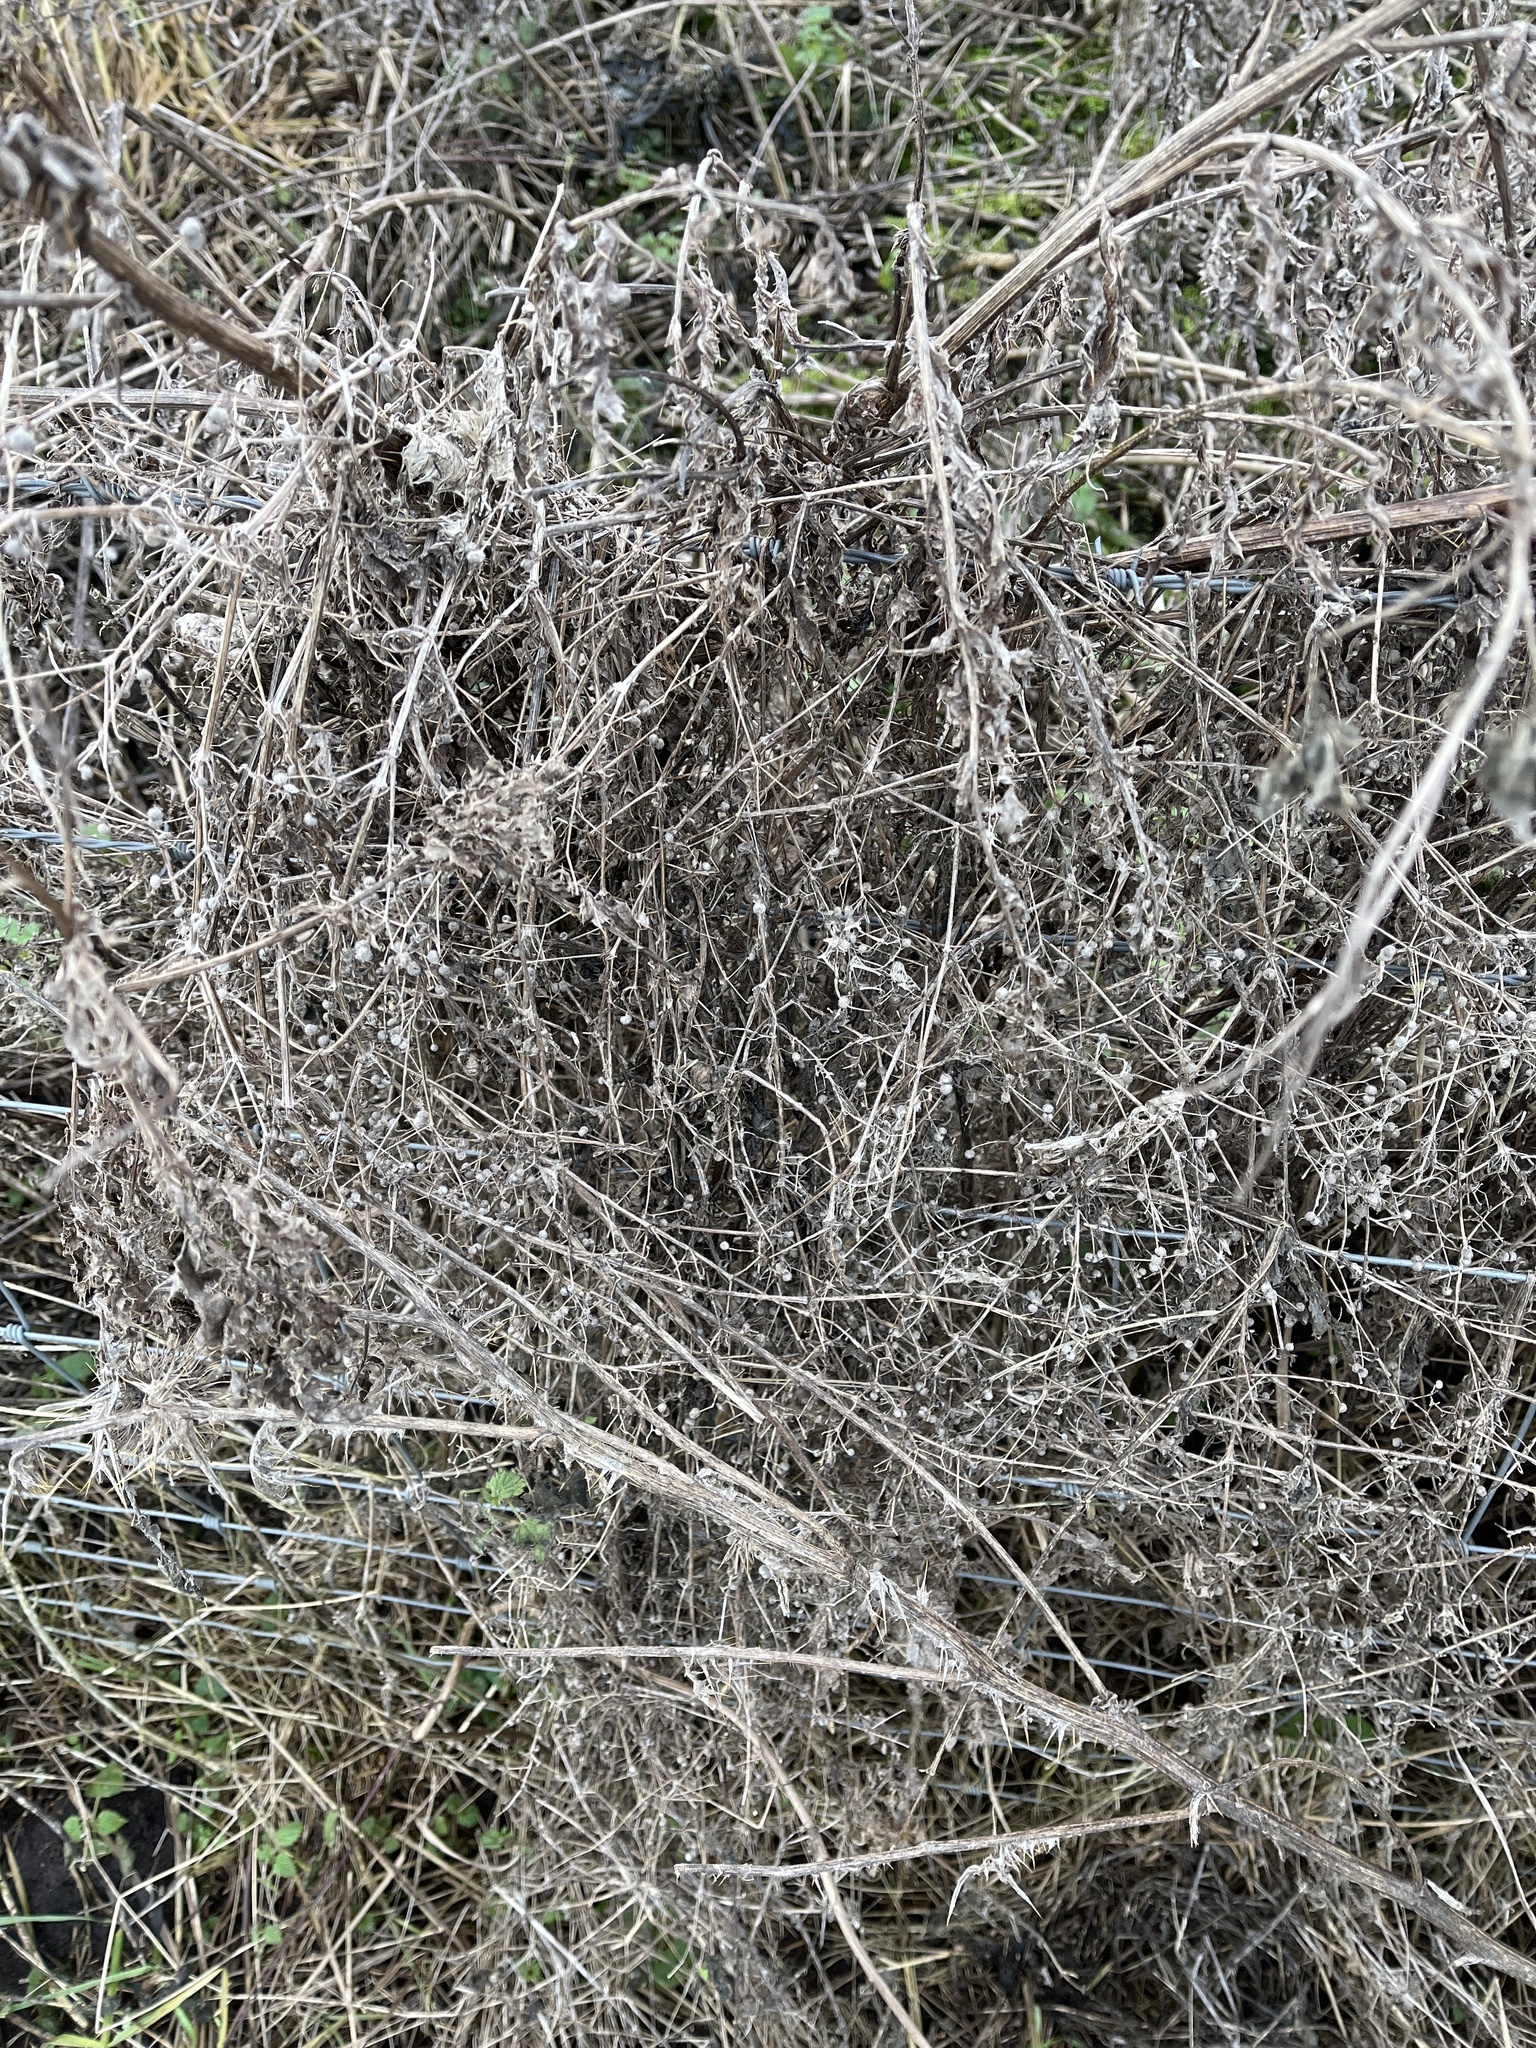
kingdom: Plantae
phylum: Tracheophyta
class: Magnoliopsida
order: Gentianales
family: Rubiaceae
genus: Galium
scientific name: Galium aparine
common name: Cleavers
